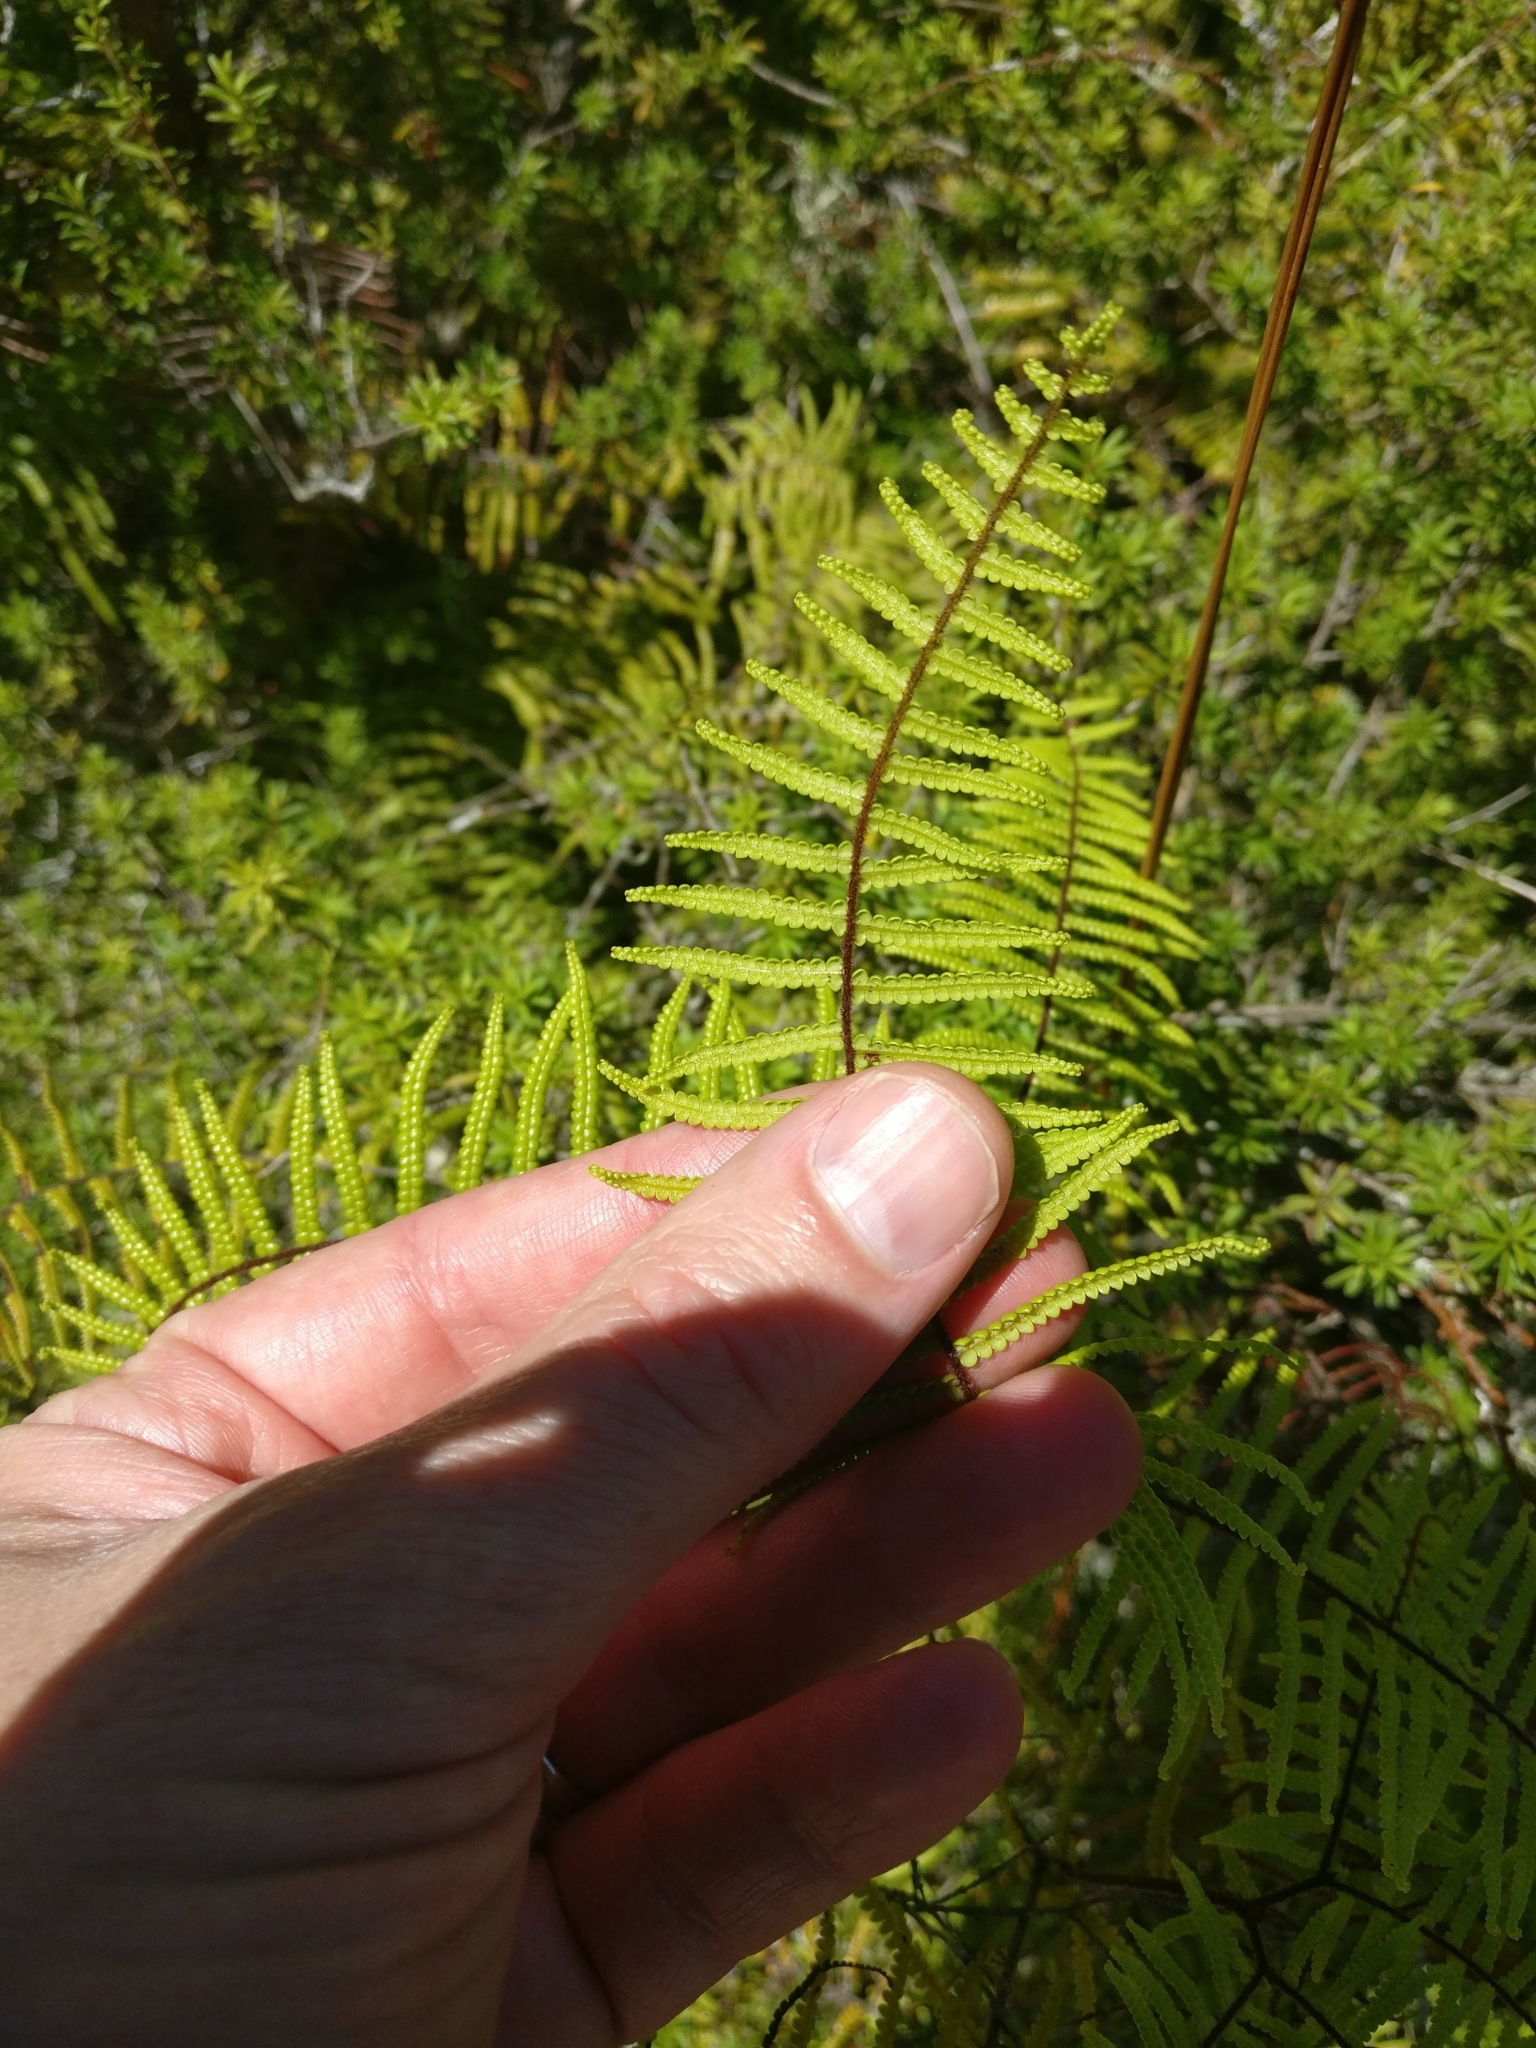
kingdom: Plantae
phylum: Tracheophyta
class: Polypodiopsida
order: Gleicheniales
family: Gleicheniaceae
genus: Gleichenia
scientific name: Gleichenia microphylla
